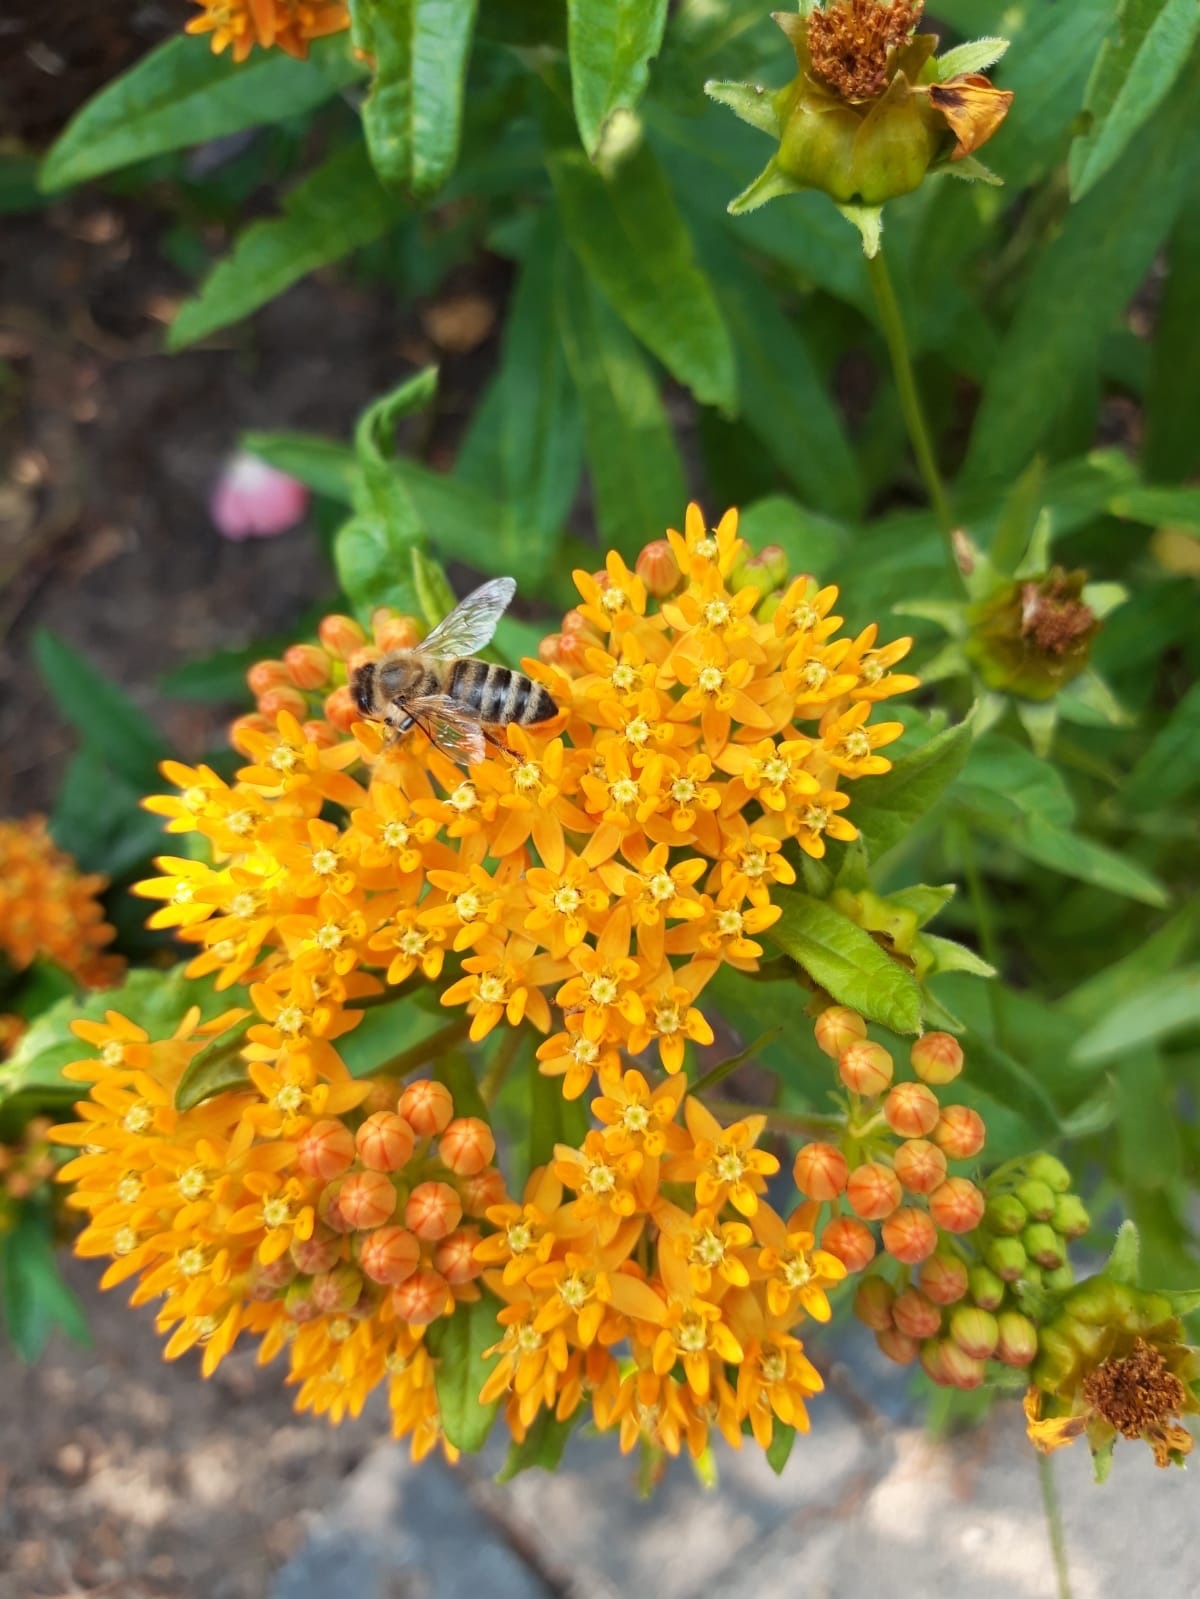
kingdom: Animalia
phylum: Arthropoda
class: Insecta
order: Hymenoptera
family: Apidae
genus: Apis
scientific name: Apis mellifera
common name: Honey bee
